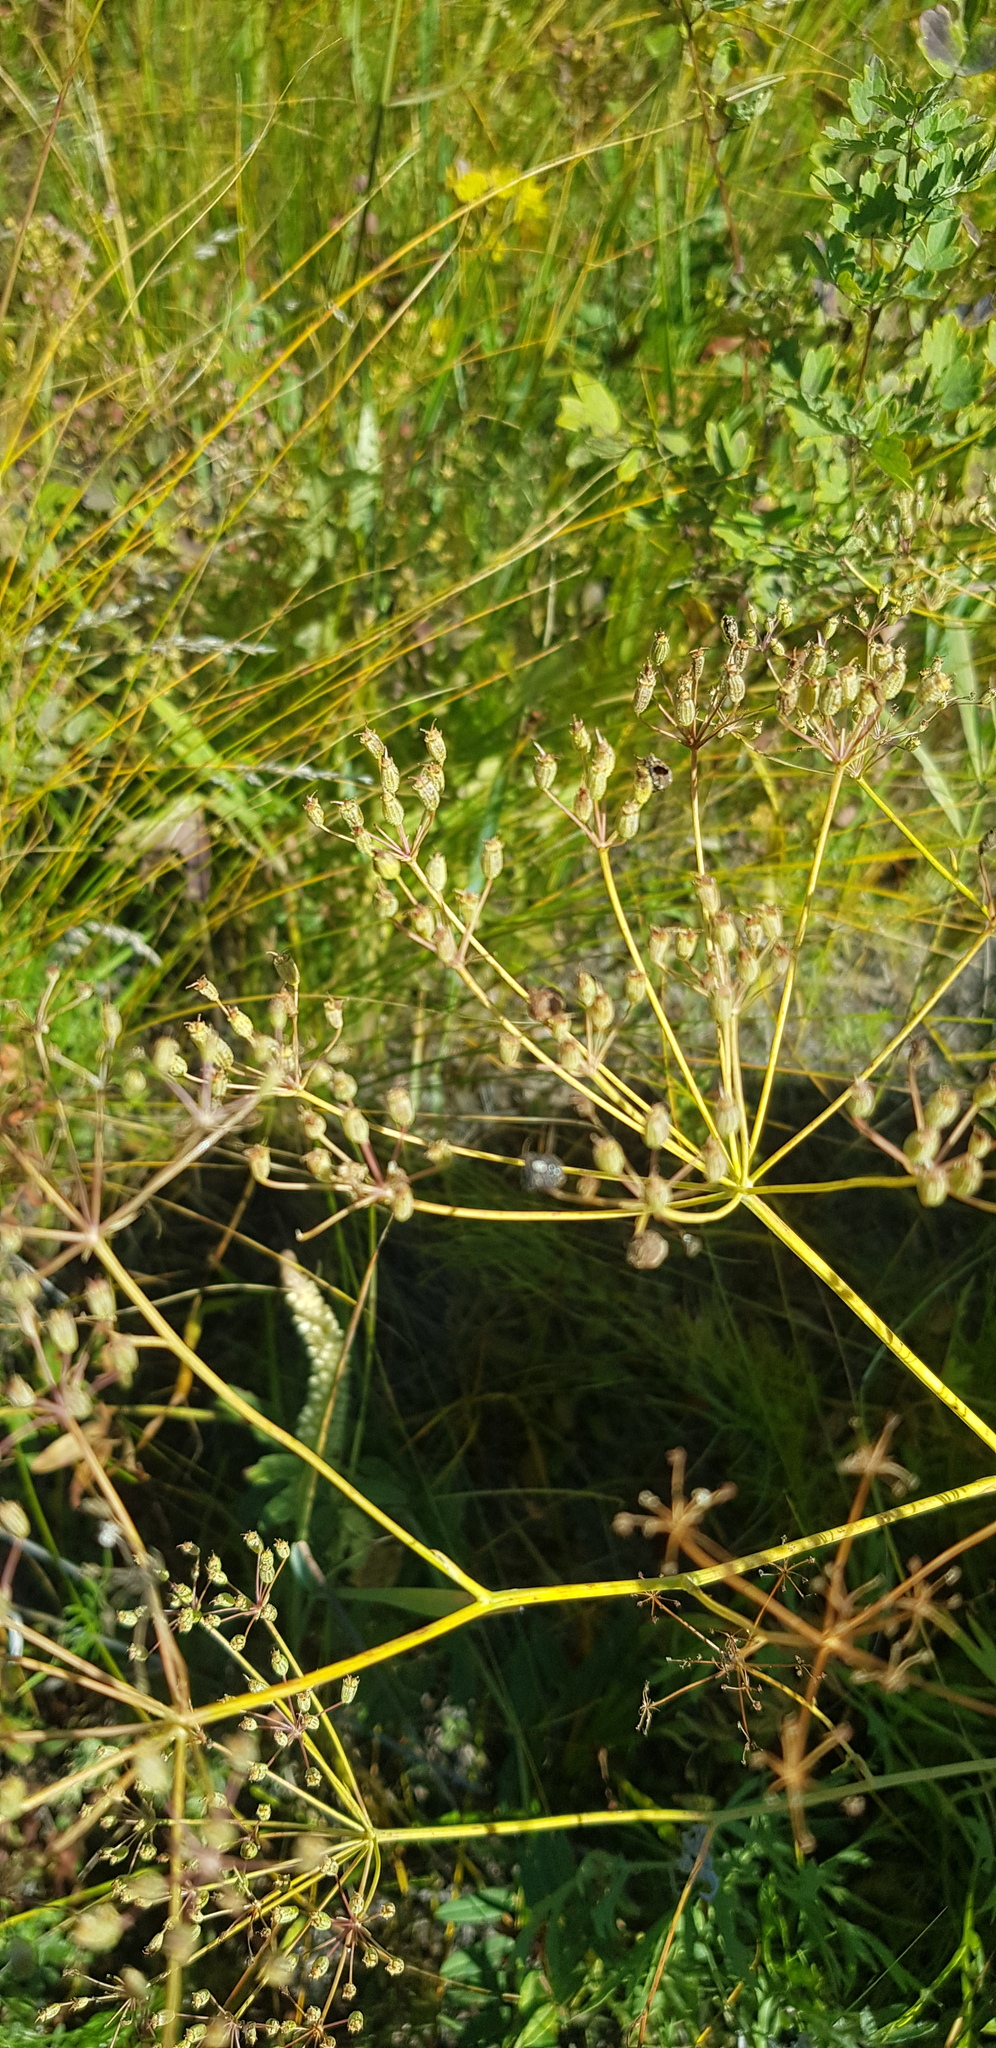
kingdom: Plantae
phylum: Tracheophyta
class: Magnoliopsida
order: Apiales
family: Apiaceae
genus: Saposhnikovia
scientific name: Saposhnikovia divaricata
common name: Siler
